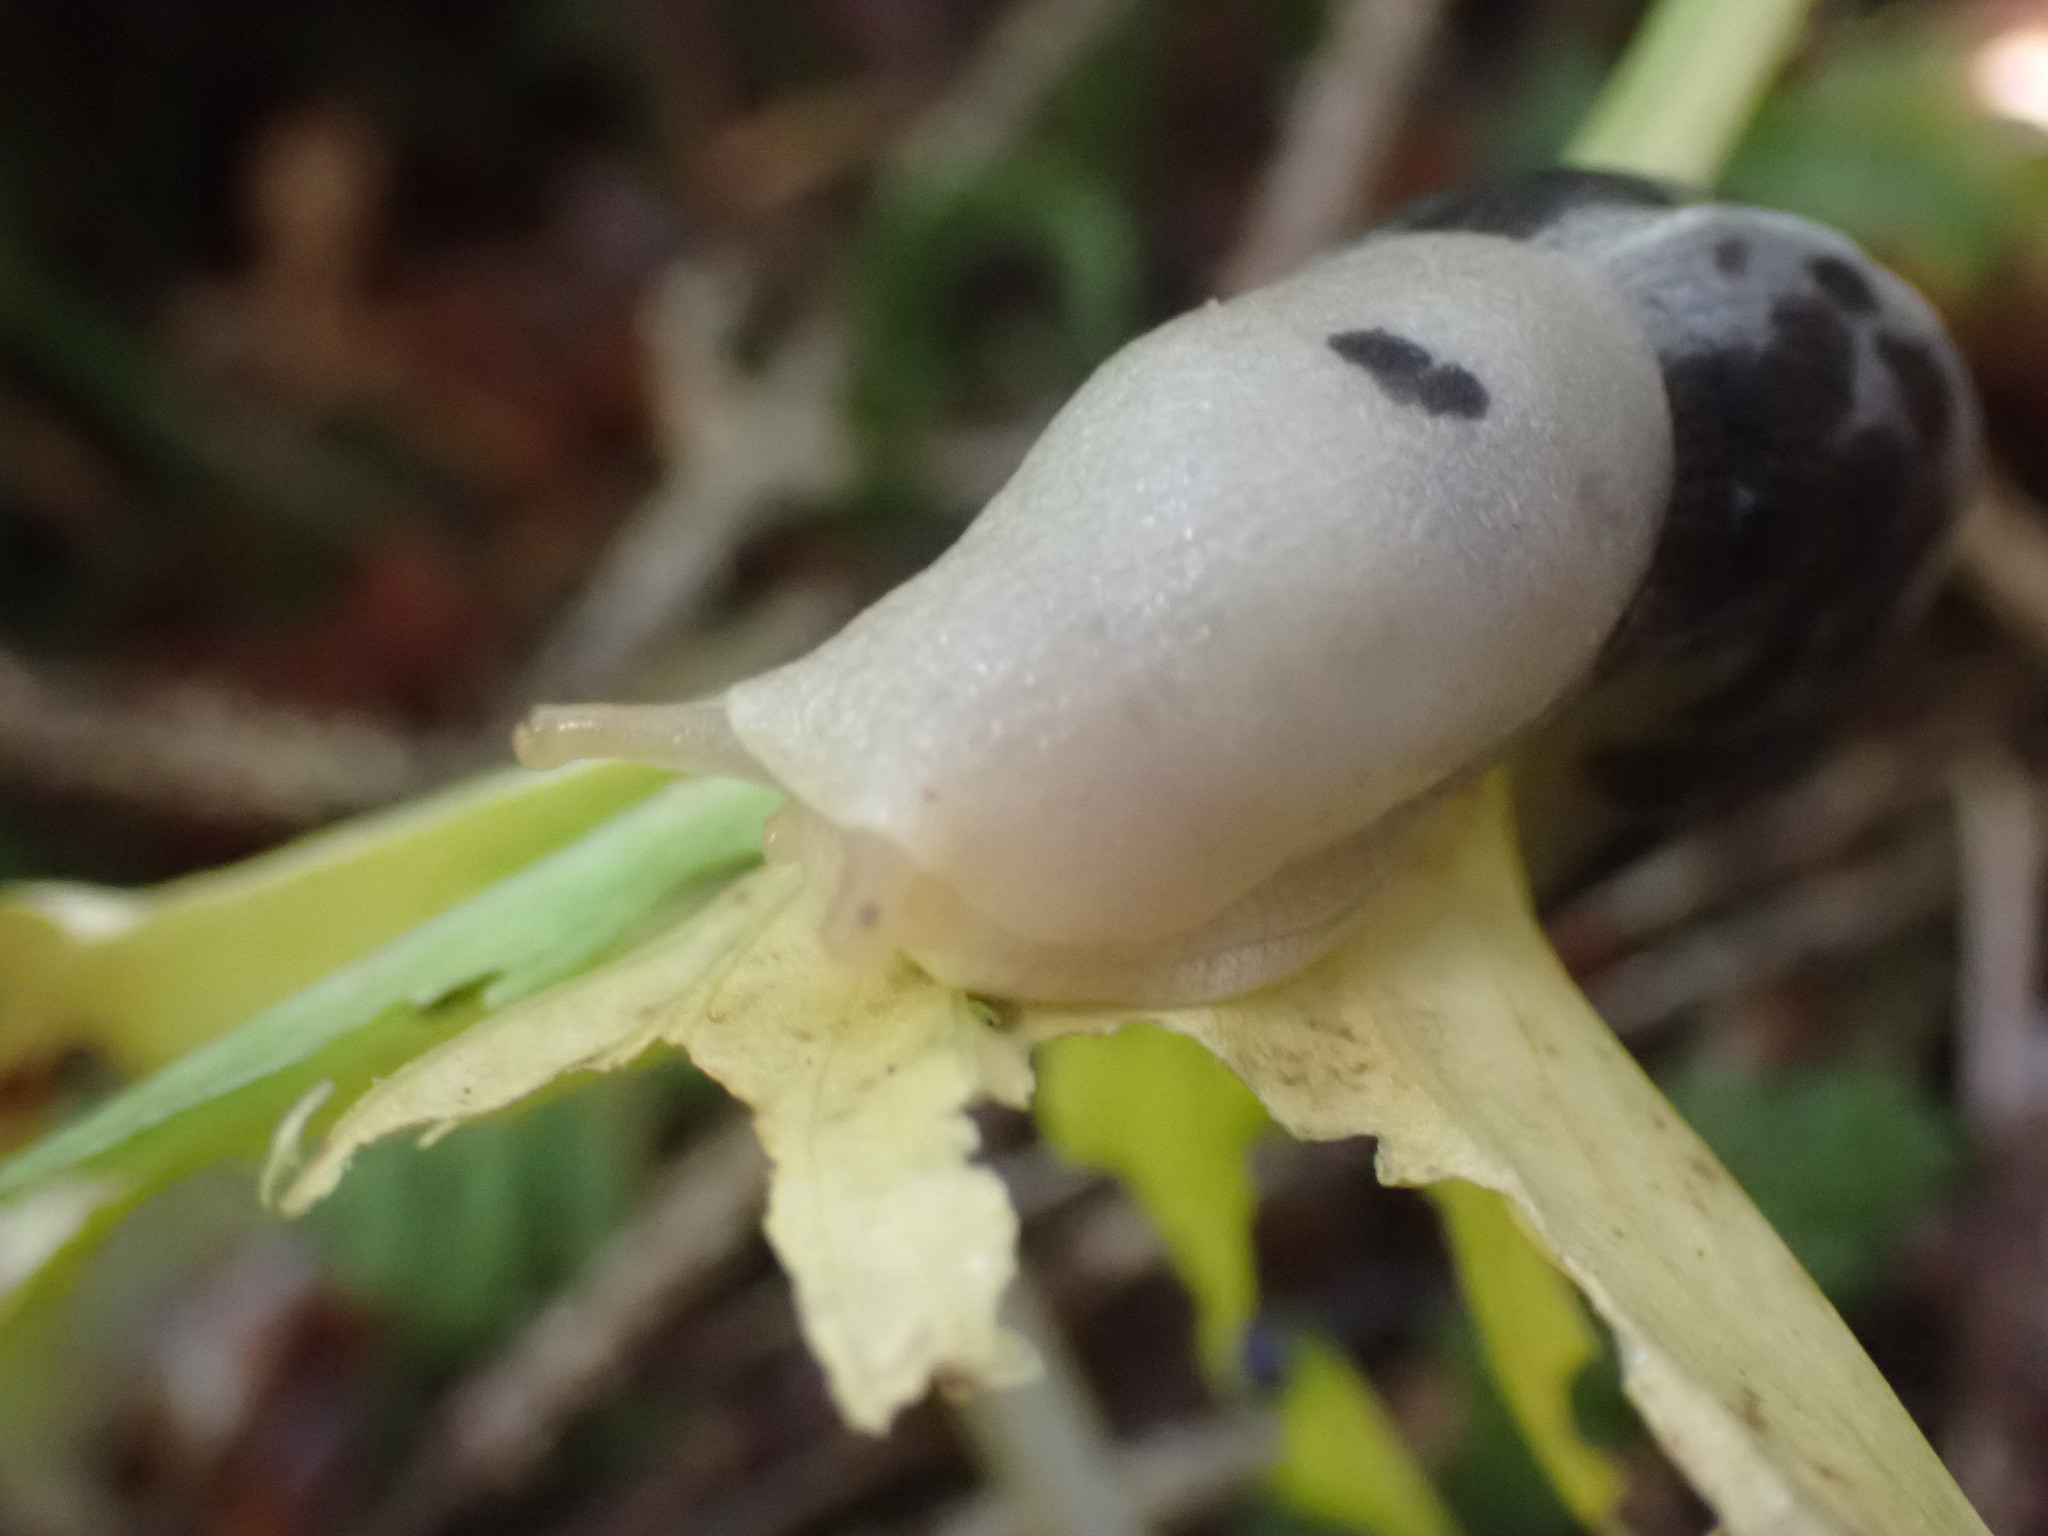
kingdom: Animalia
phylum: Mollusca
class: Gastropoda
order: Stylommatophora
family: Ariolimacidae
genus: Ariolimax
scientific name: Ariolimax columbianus
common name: Pacific banana slug
